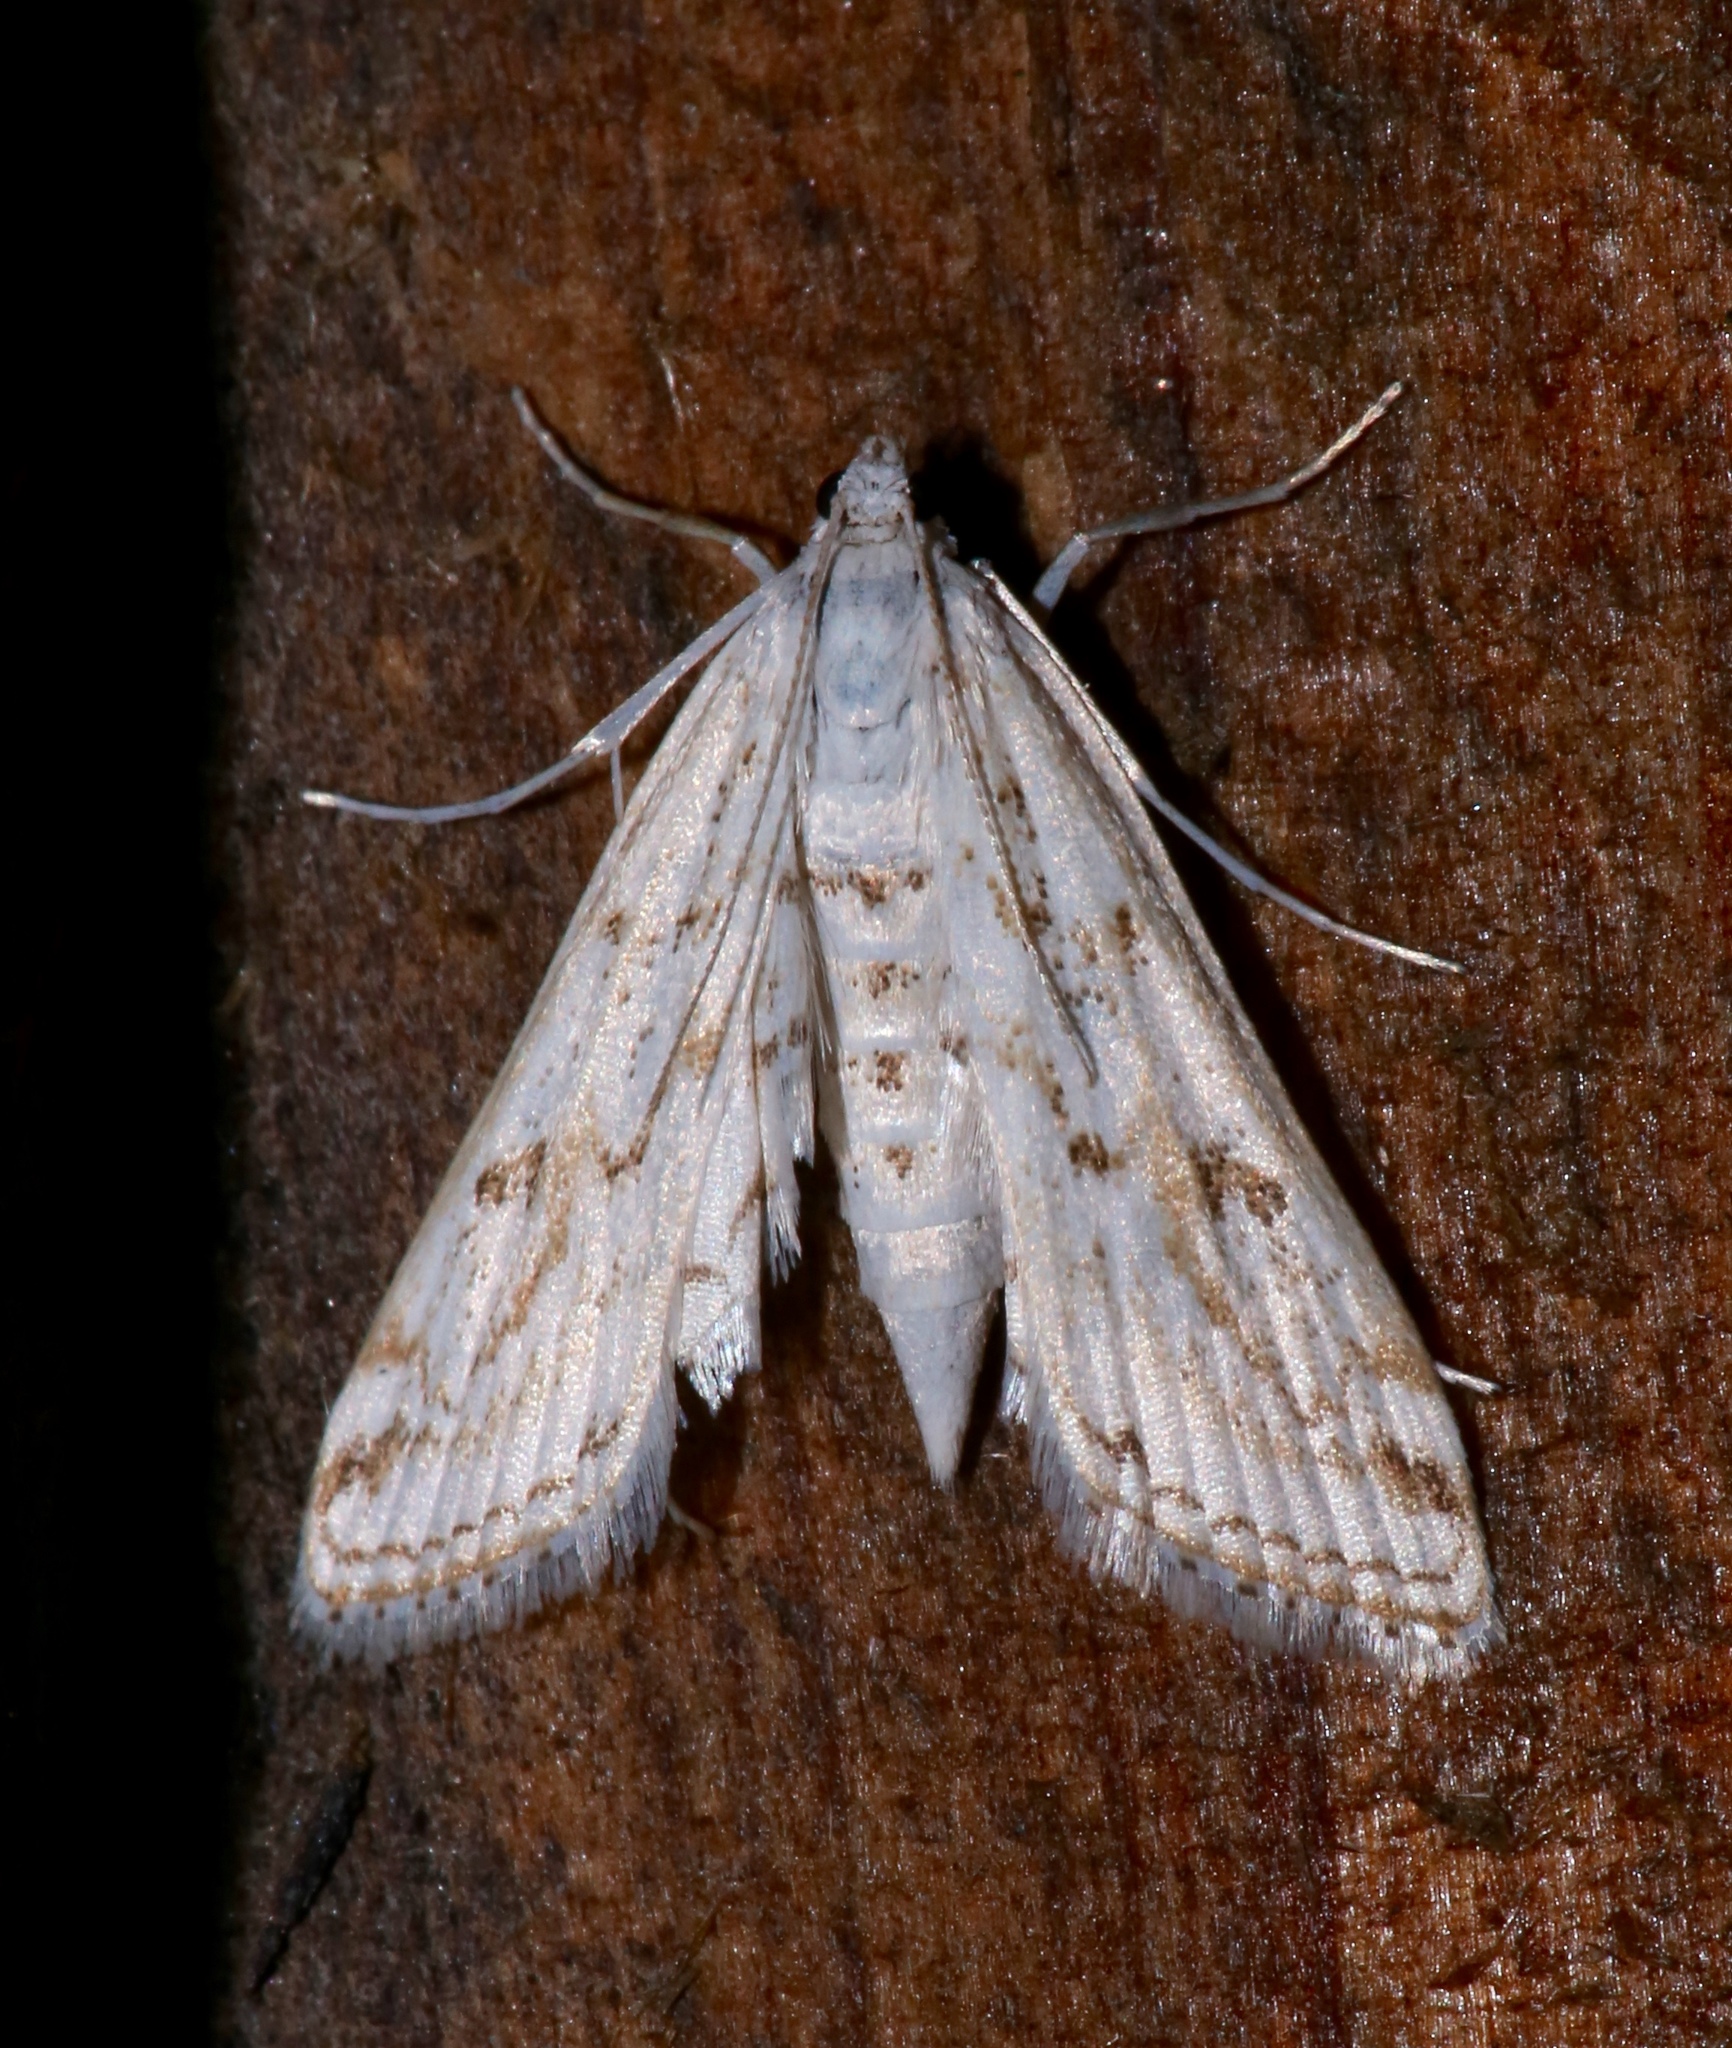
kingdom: Animalia
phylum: Arthropoda
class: Insecta
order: Lepidoptera
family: Crambidae
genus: Parapoynx
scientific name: Parapoynx allionealis
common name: Bladderwort casemaker
